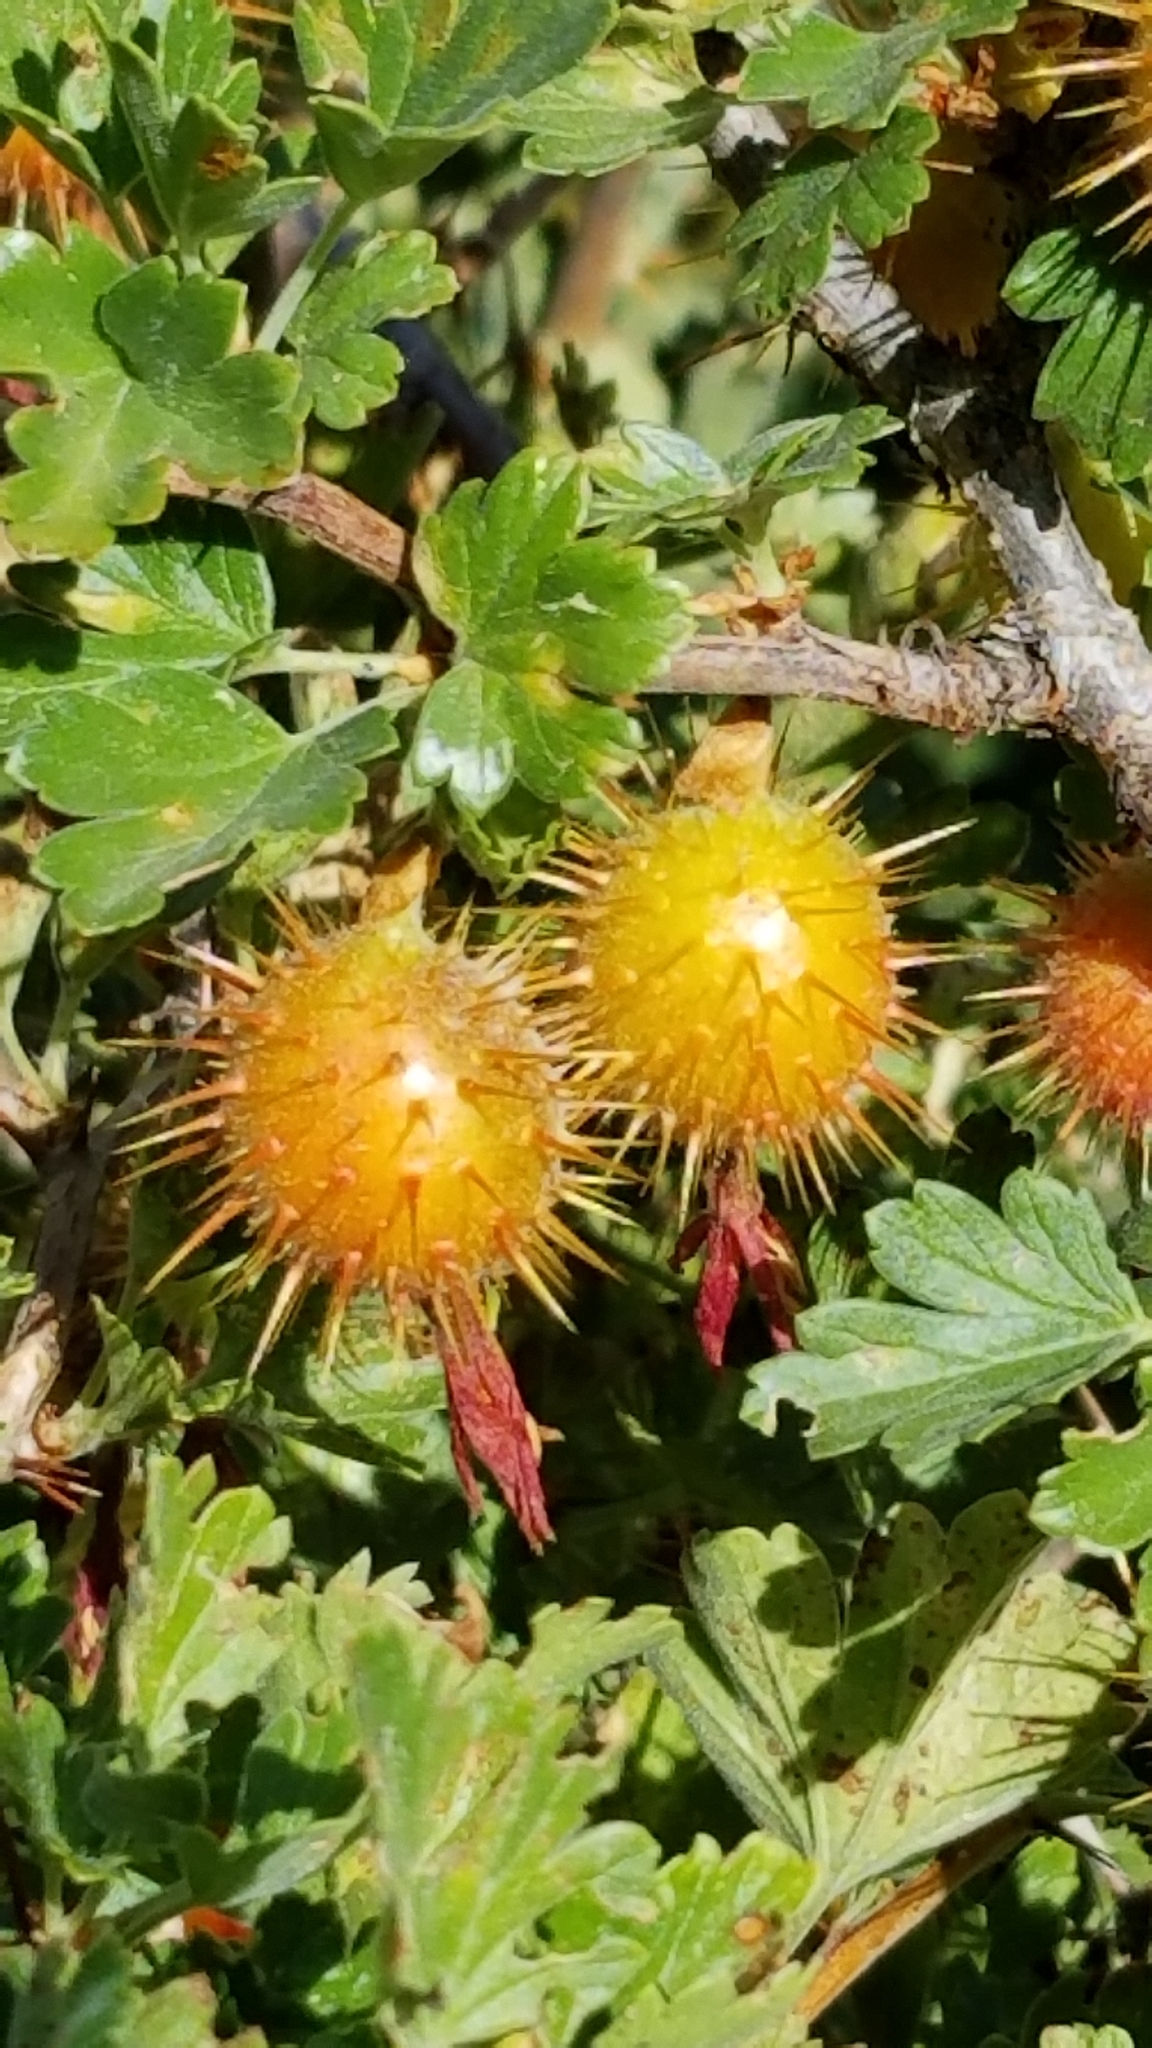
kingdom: Plantae
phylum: Tracheophyta
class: Magnoliopsida
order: Saxifragales
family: Grossulariaceae
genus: Ribes
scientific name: Ribes roezlii
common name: Sierra gooseberry
